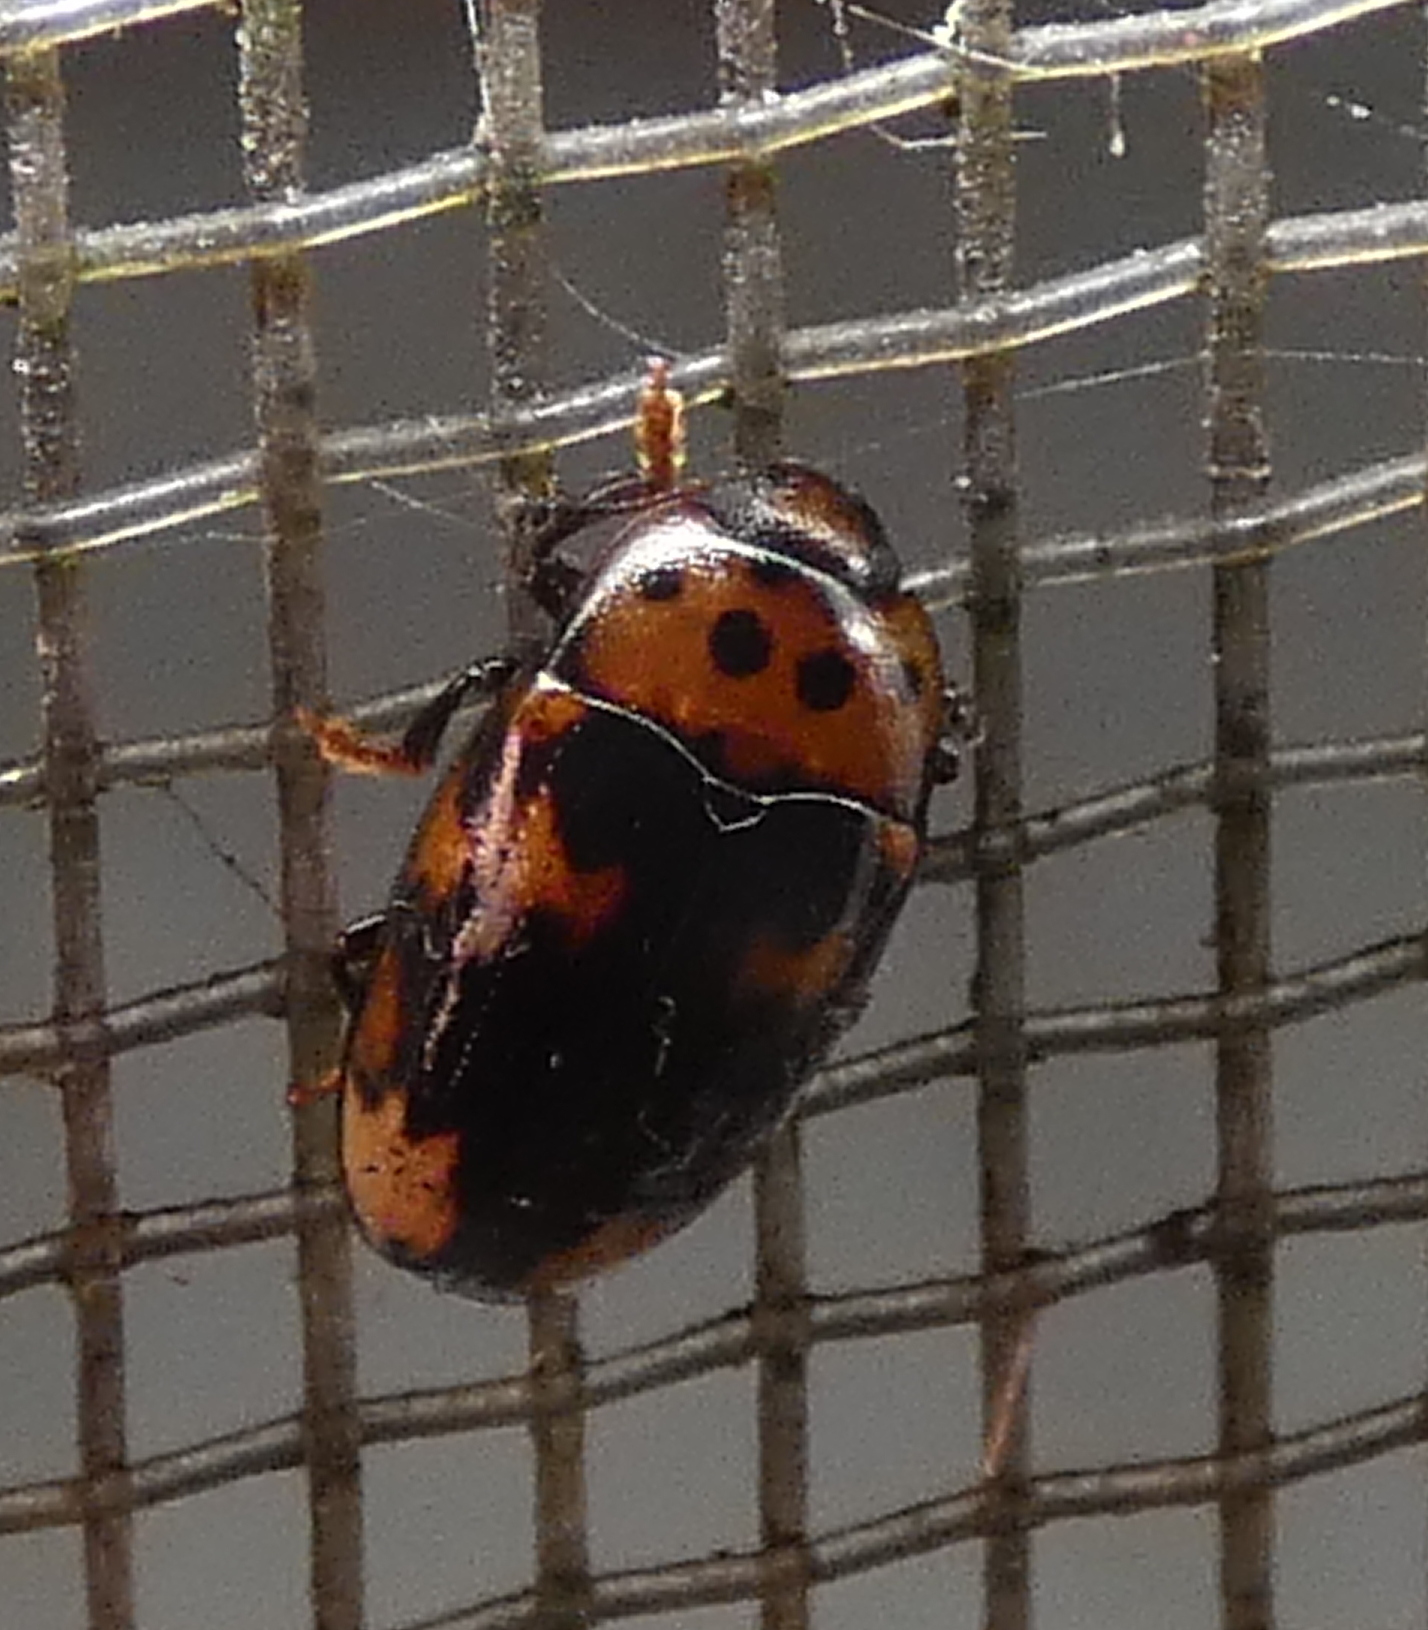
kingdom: Animalia
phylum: Arthropoda
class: Insecta
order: Coleoptera
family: Erotylidae
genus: Ischyrus
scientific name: Ischyrus
